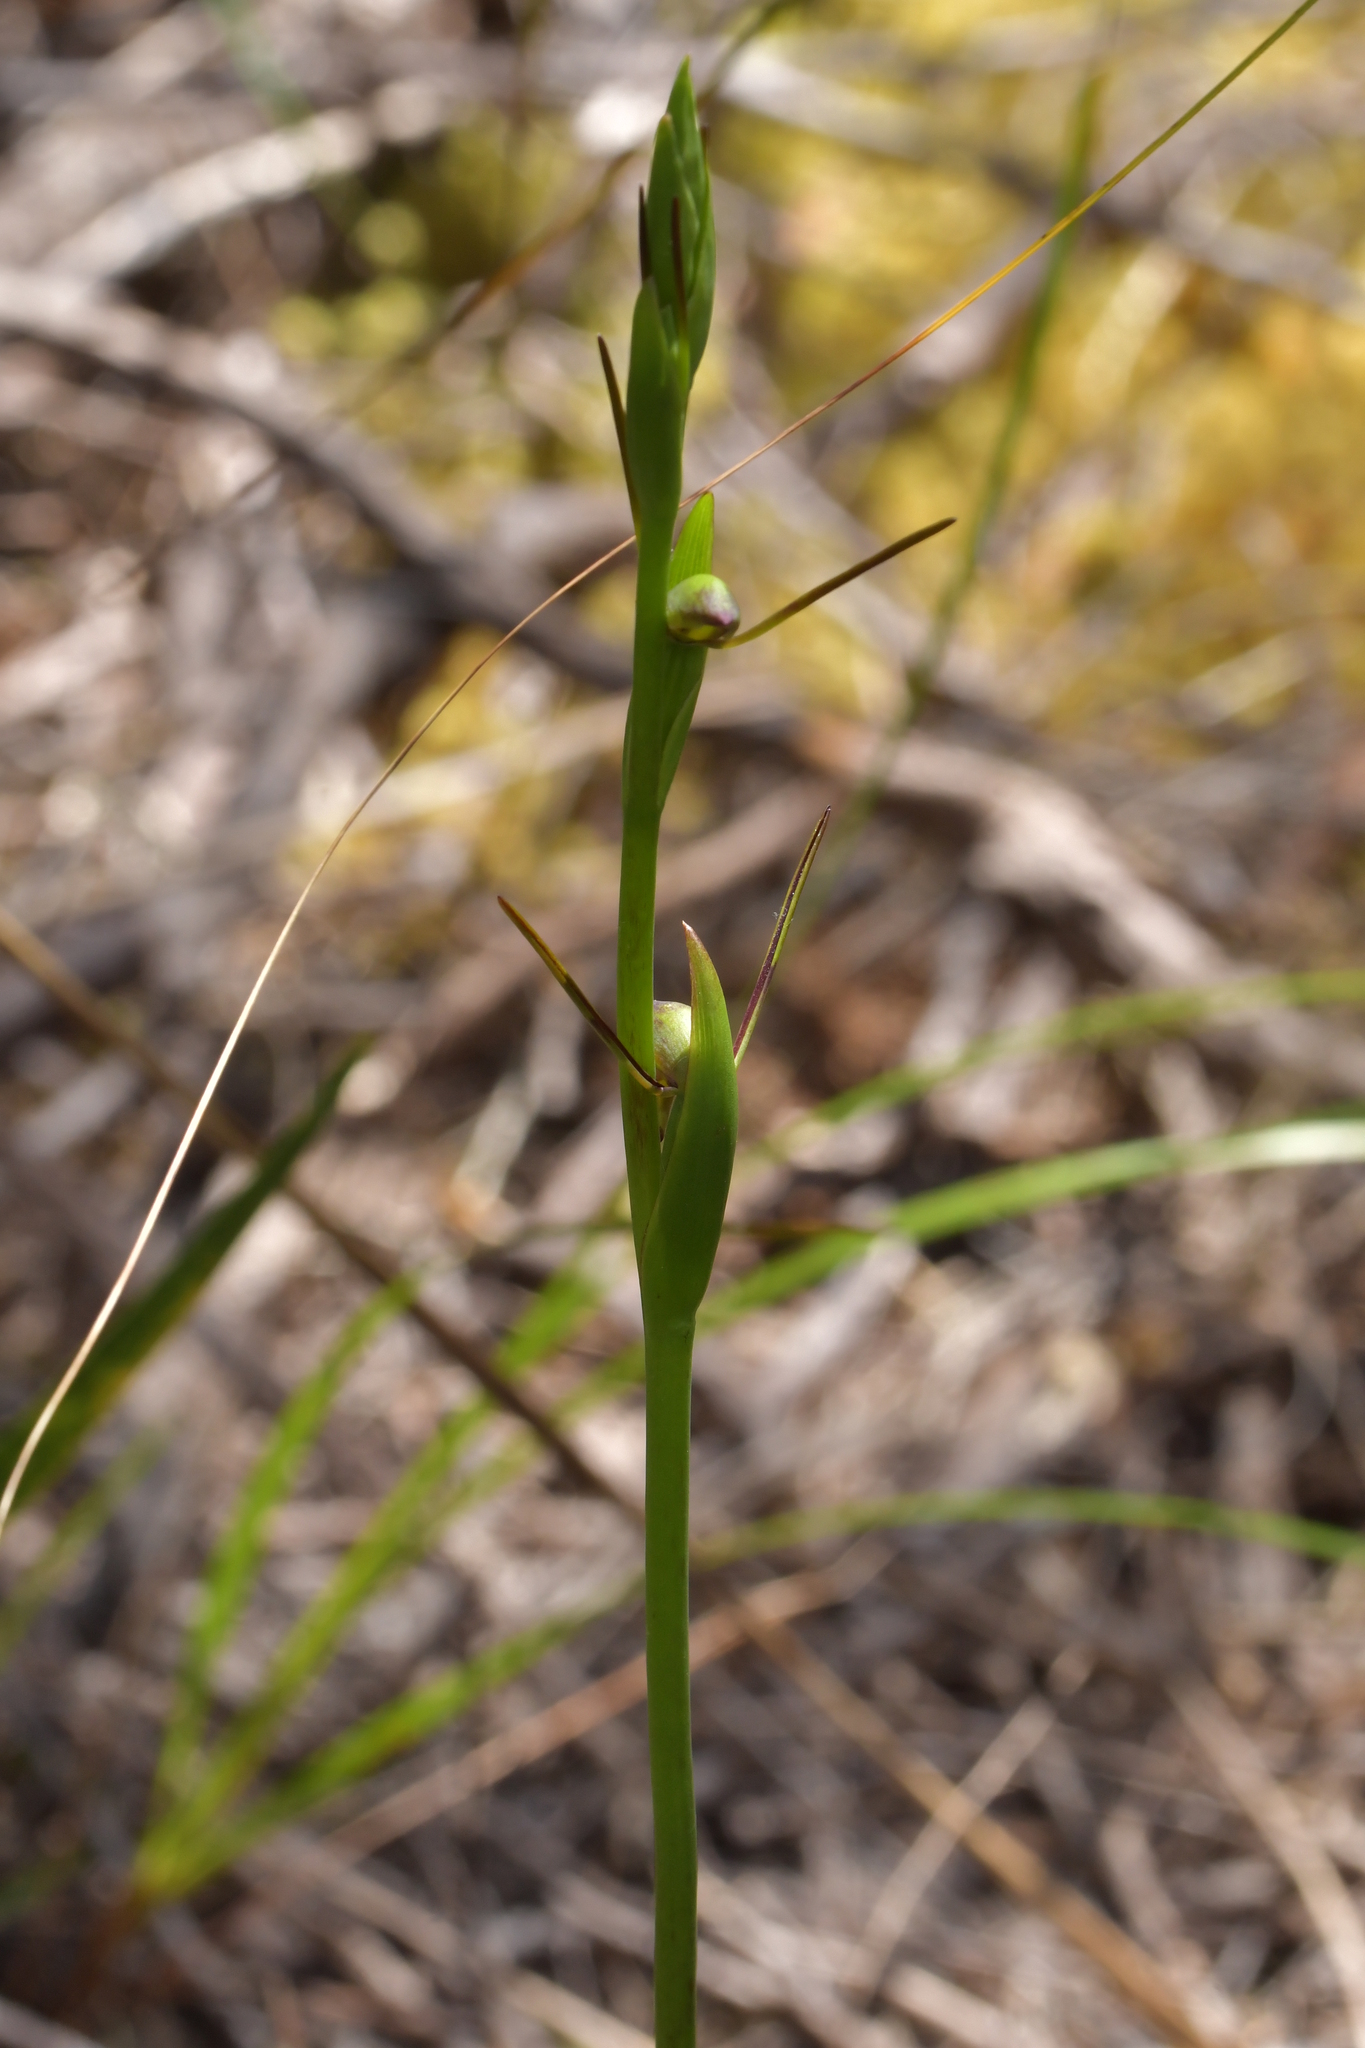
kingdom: Plantae
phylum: Tracheophyta
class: Liliopsida
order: Asparagales
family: Orchidaceae
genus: Orthoceras
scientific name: Orthoceras novae-zeelandiae
